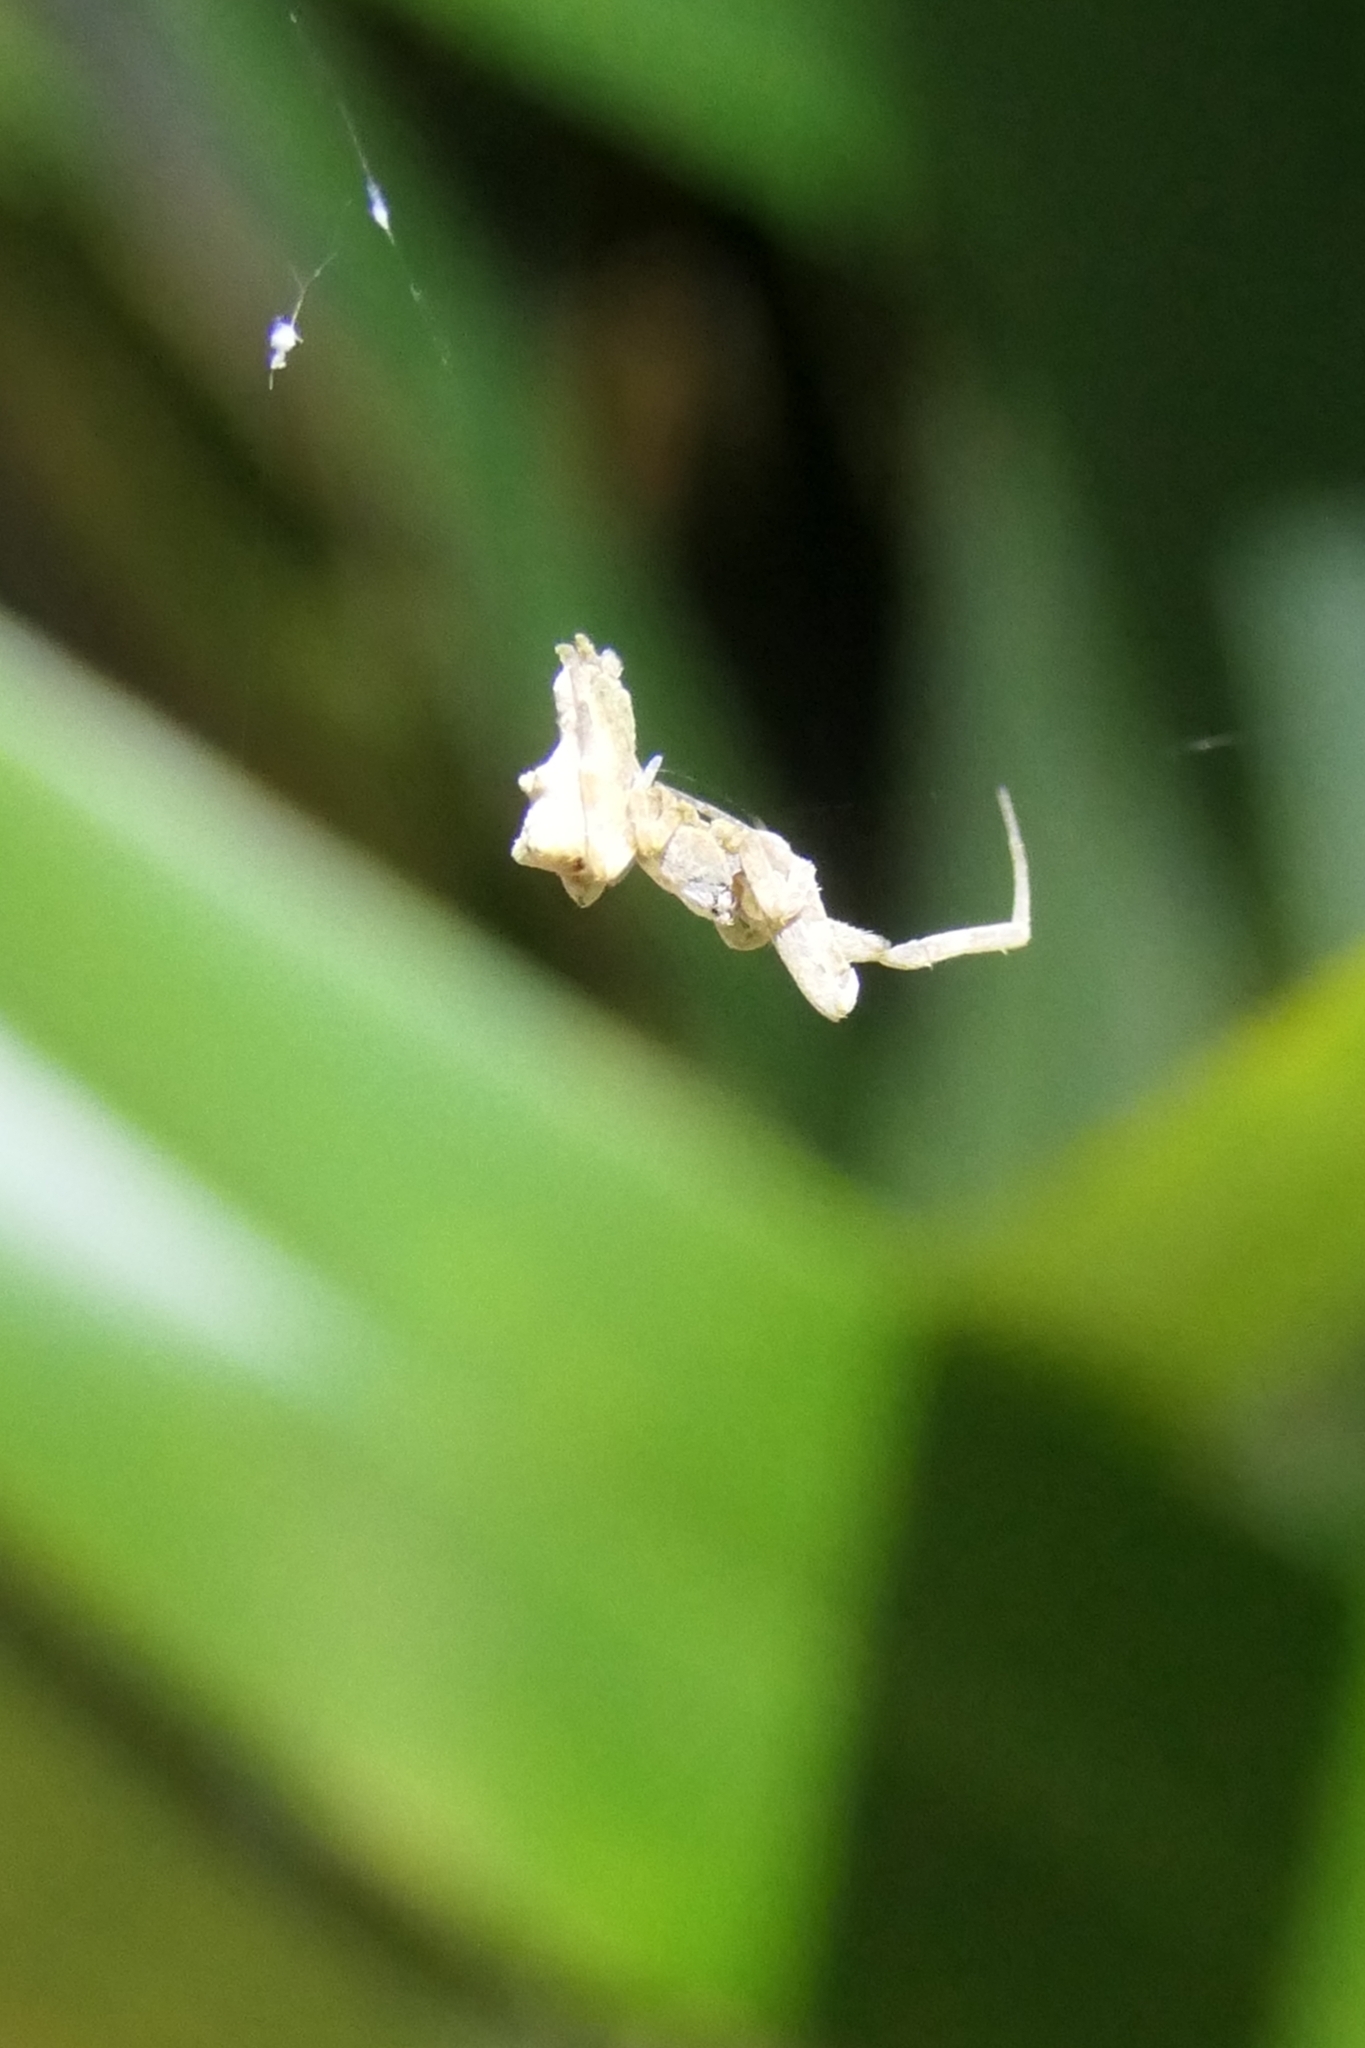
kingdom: Animalia
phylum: Arthropoda
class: Arachnida
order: Araneae
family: Uloboridae
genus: Philoponella
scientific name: Philoponella congregabilis
